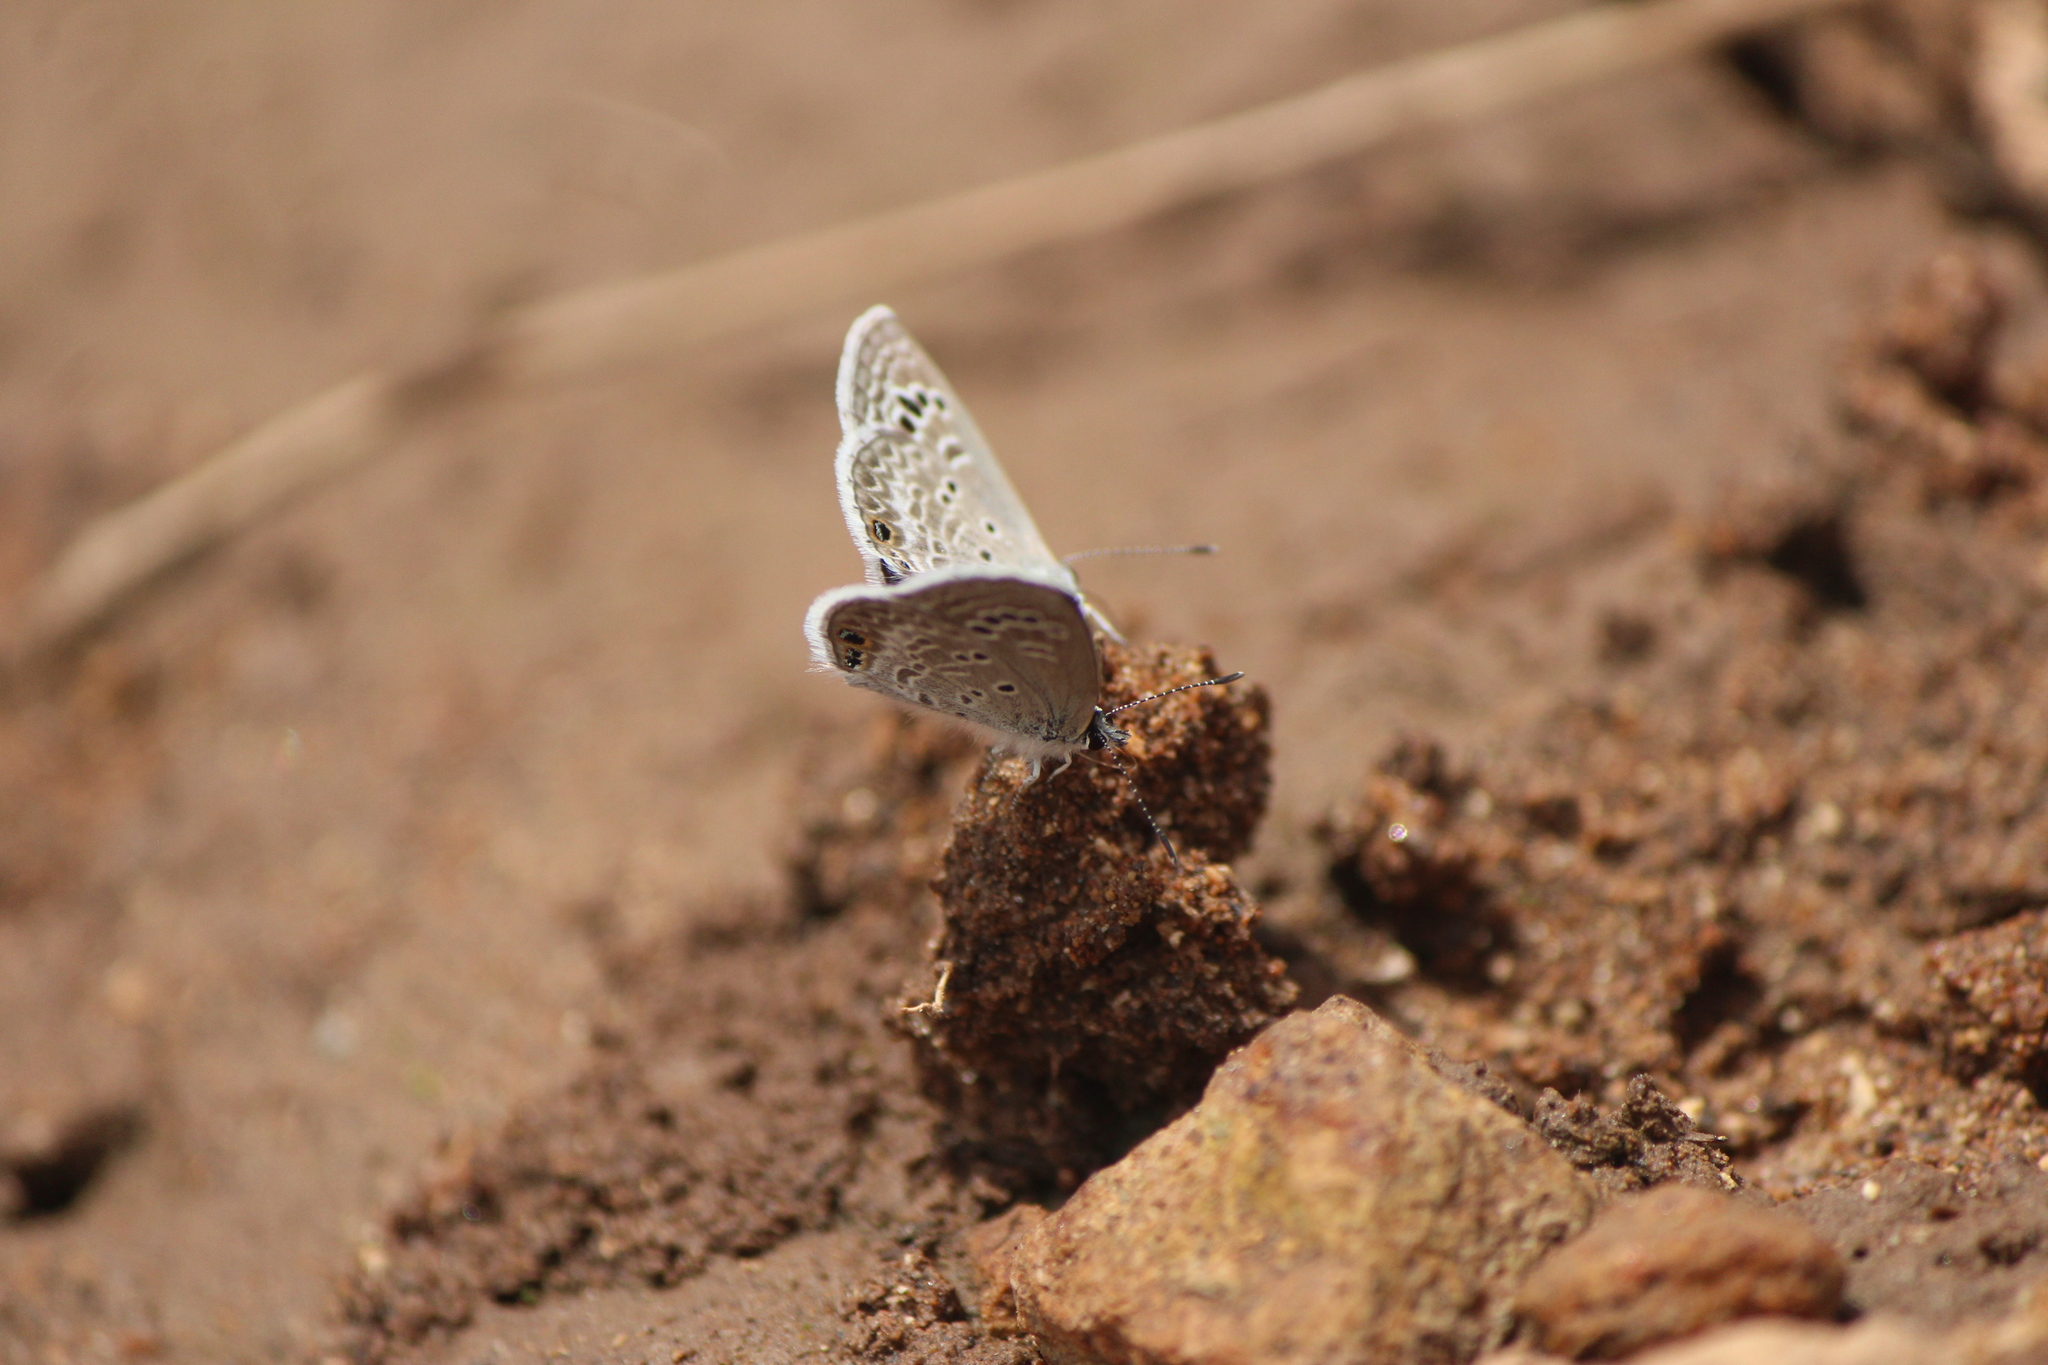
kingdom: Animalia
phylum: Arthropoda
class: Insecta
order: Lepidoptera
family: Lycaenidae
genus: Echinargus
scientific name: Echinargus isola
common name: Reakirt's blue
